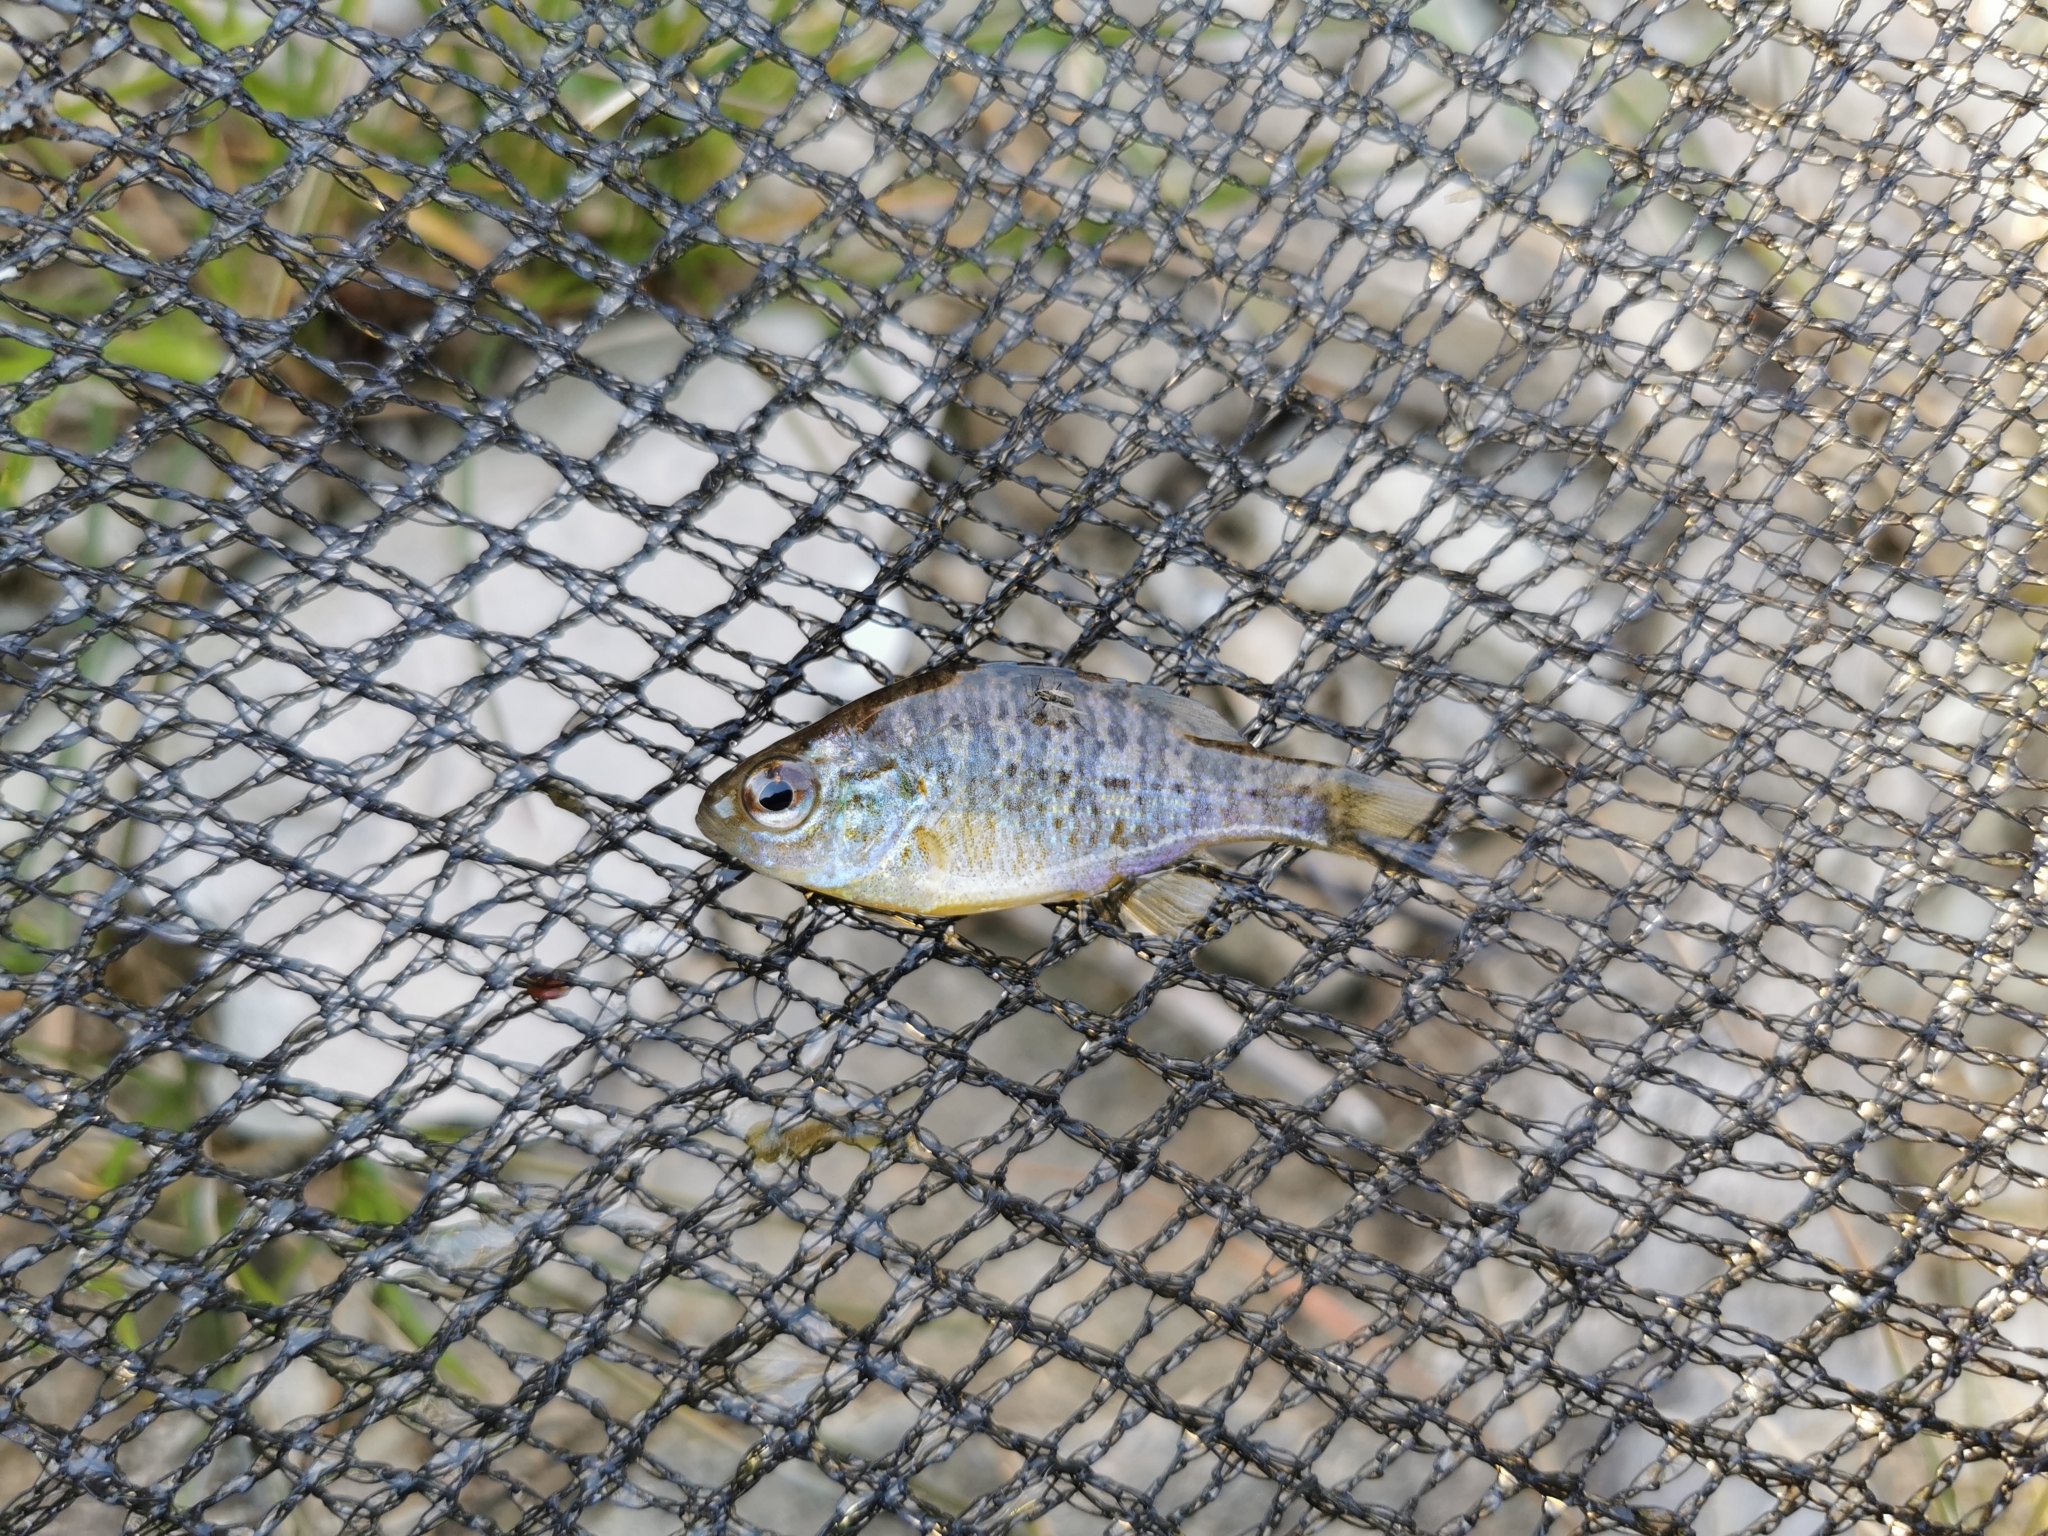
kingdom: Animalia
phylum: Chordata
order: Perciformes
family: Centrarchidae
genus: Lepomis
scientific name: Lepomis gibbosus
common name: Pumpkinseed
